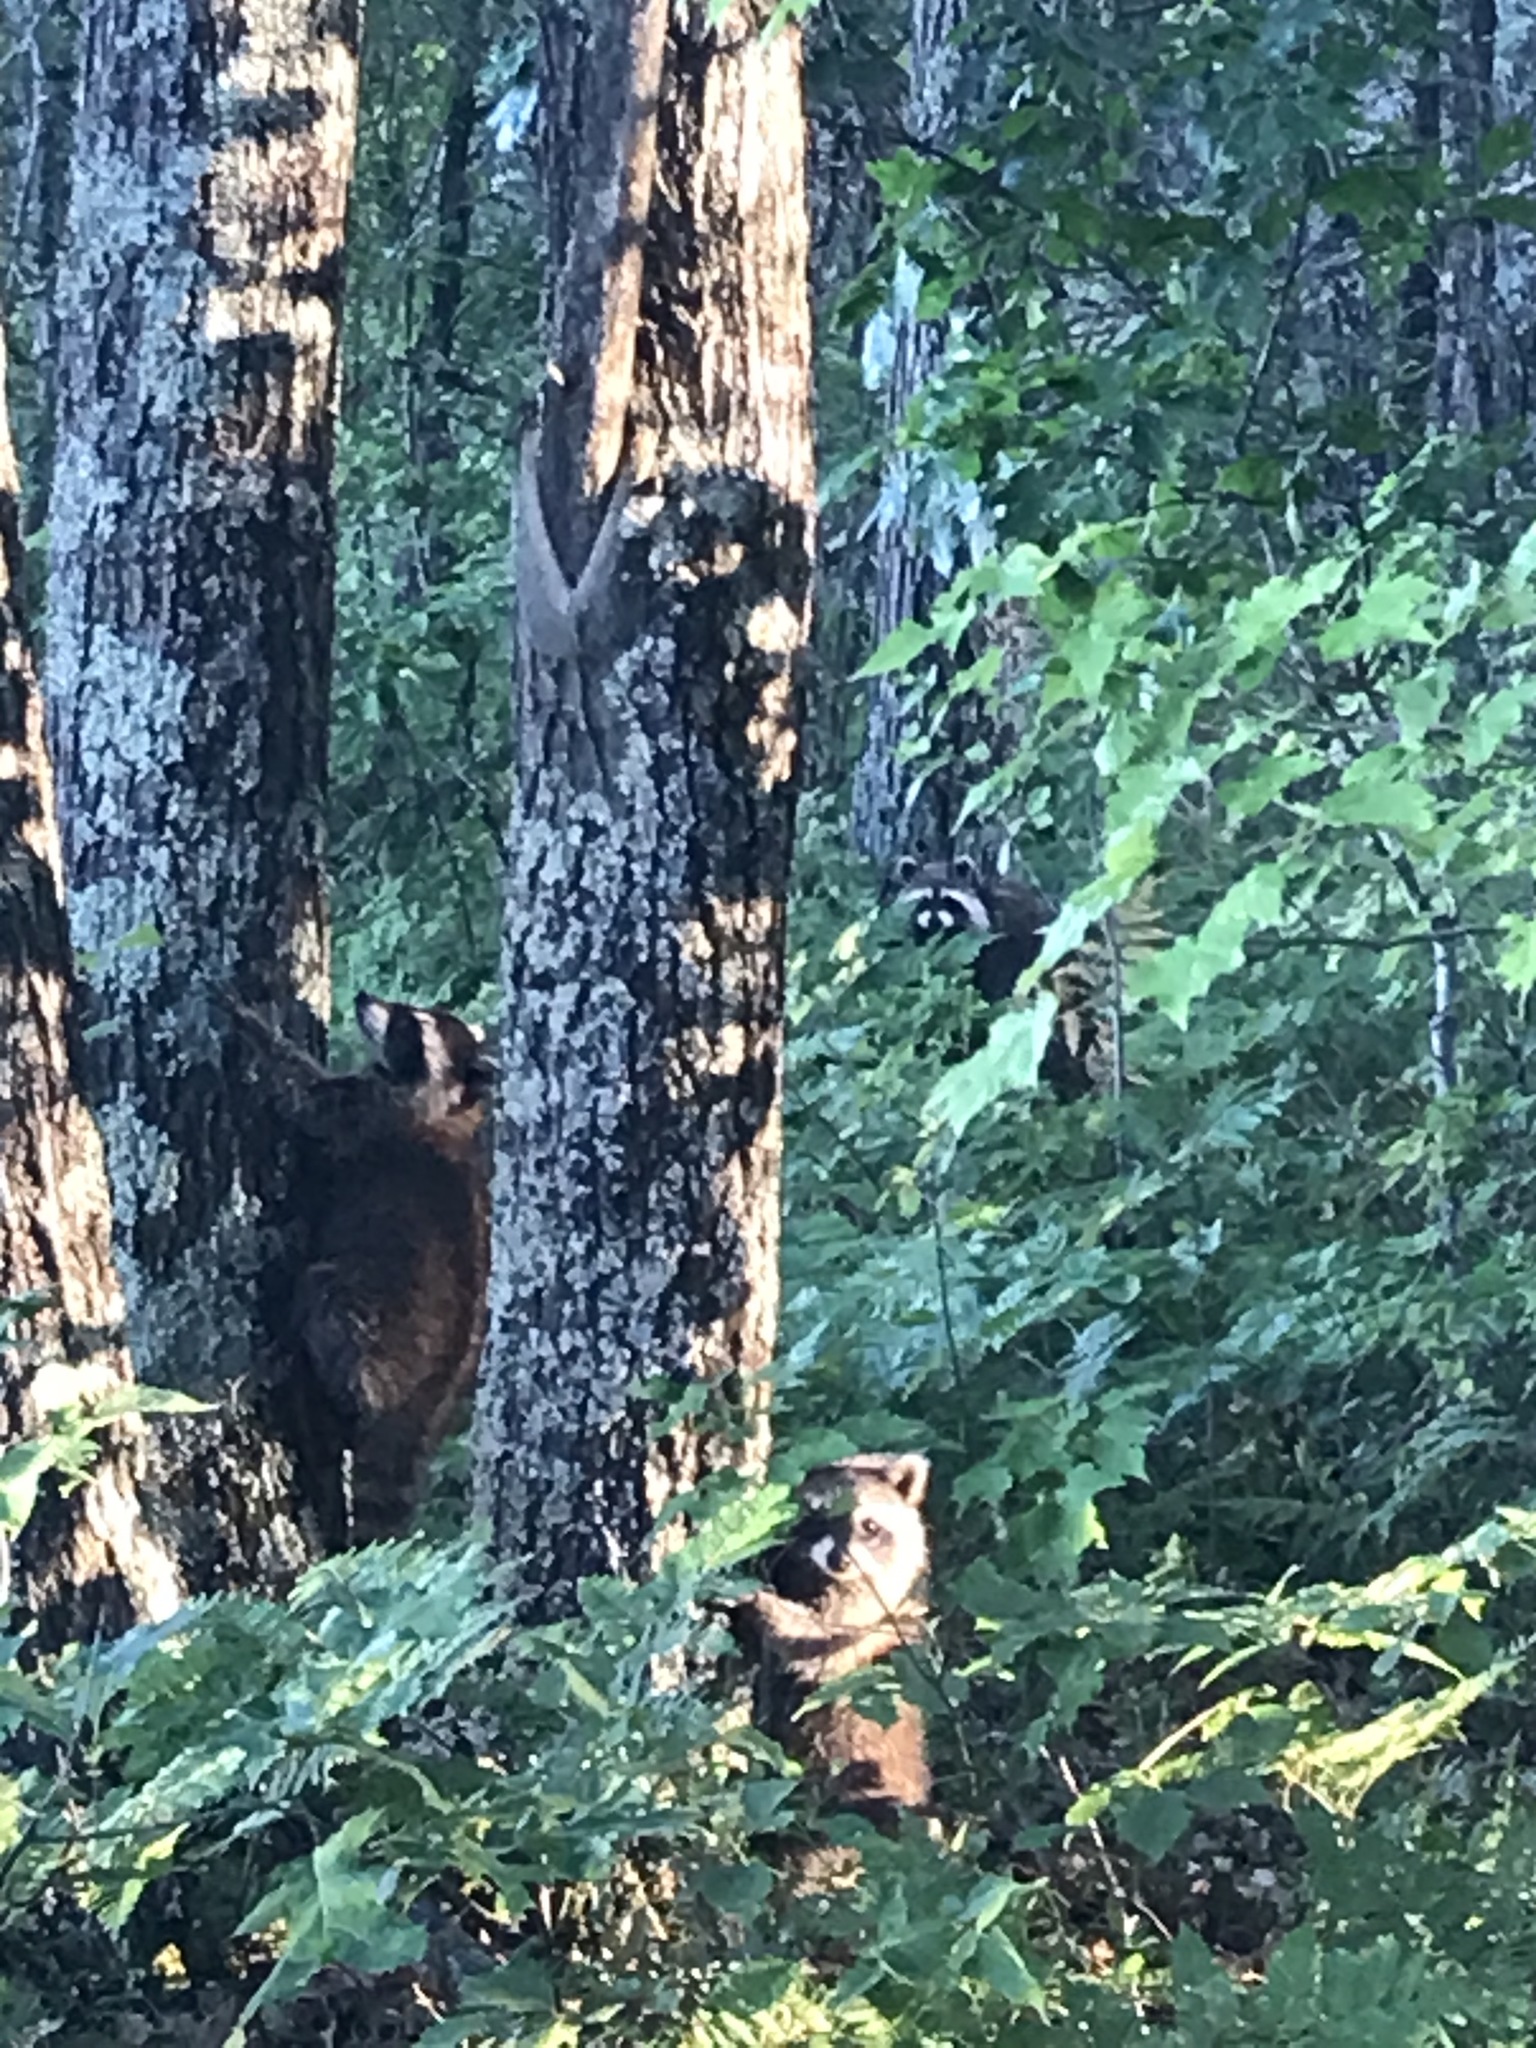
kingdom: Animalia
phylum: Chordata
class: Mammalia
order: Carnivora
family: Procyonidae
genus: Procyon
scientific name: Procyon lotor
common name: Raccoon
